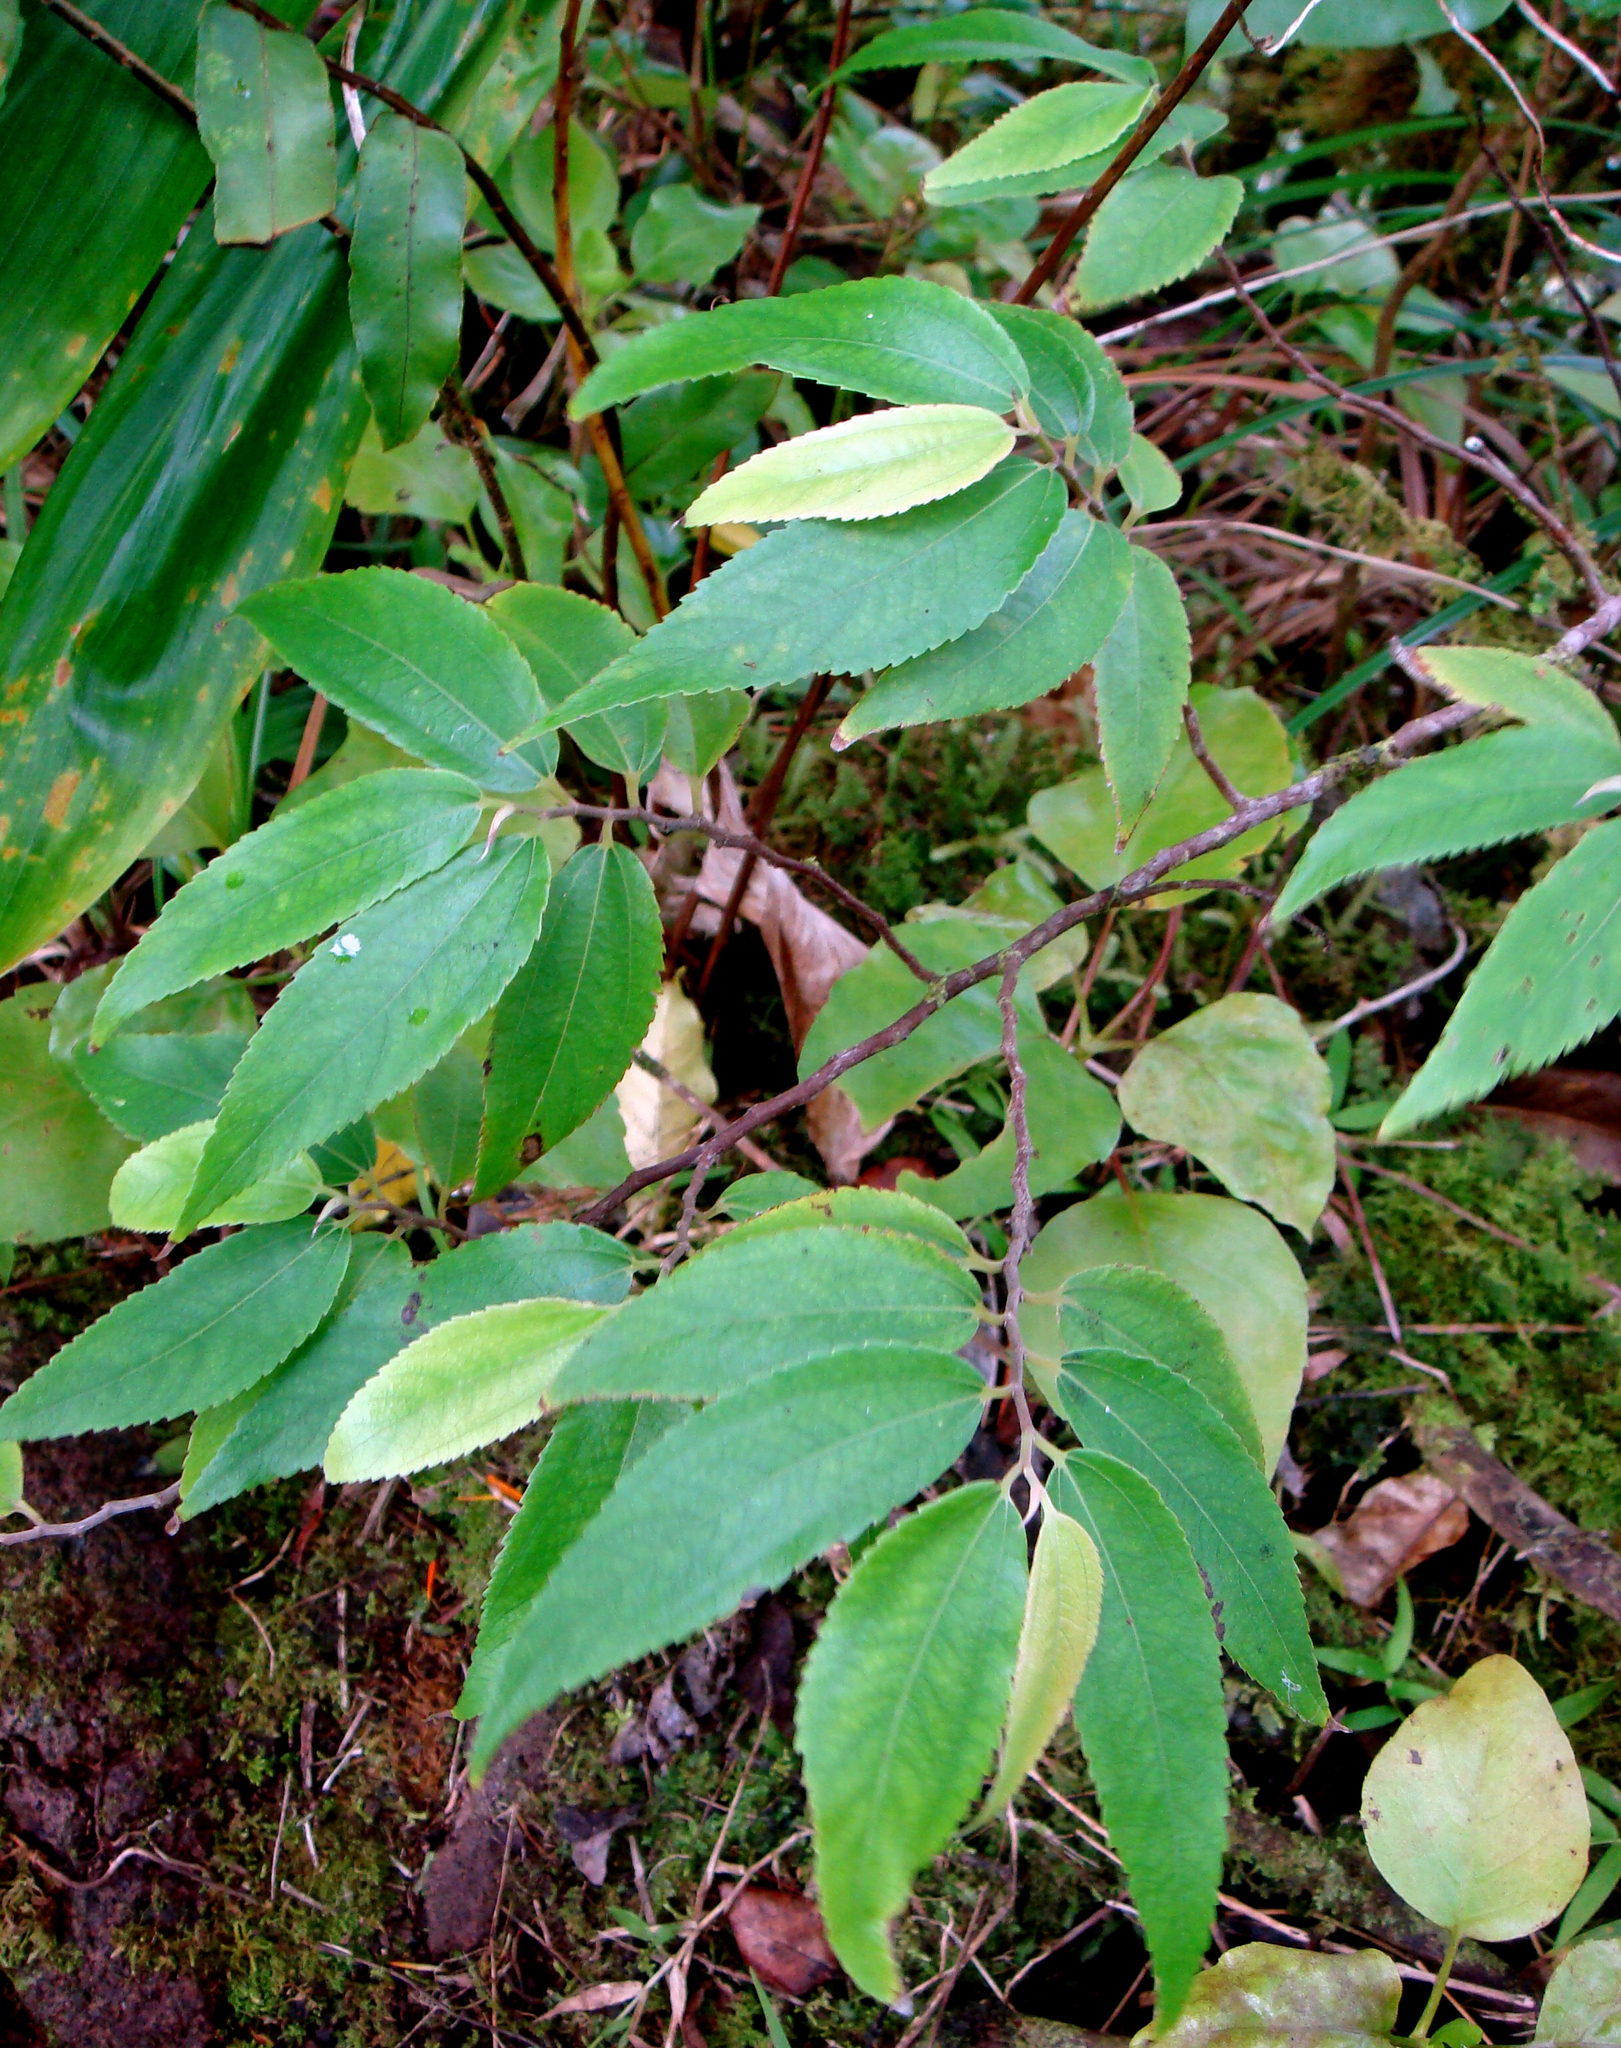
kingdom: Plantae
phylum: Tracheophyta
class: Magnoliopsida
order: Rosales
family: Urticaceae
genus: Leucosyke
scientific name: Leucosyke corymbulosa
